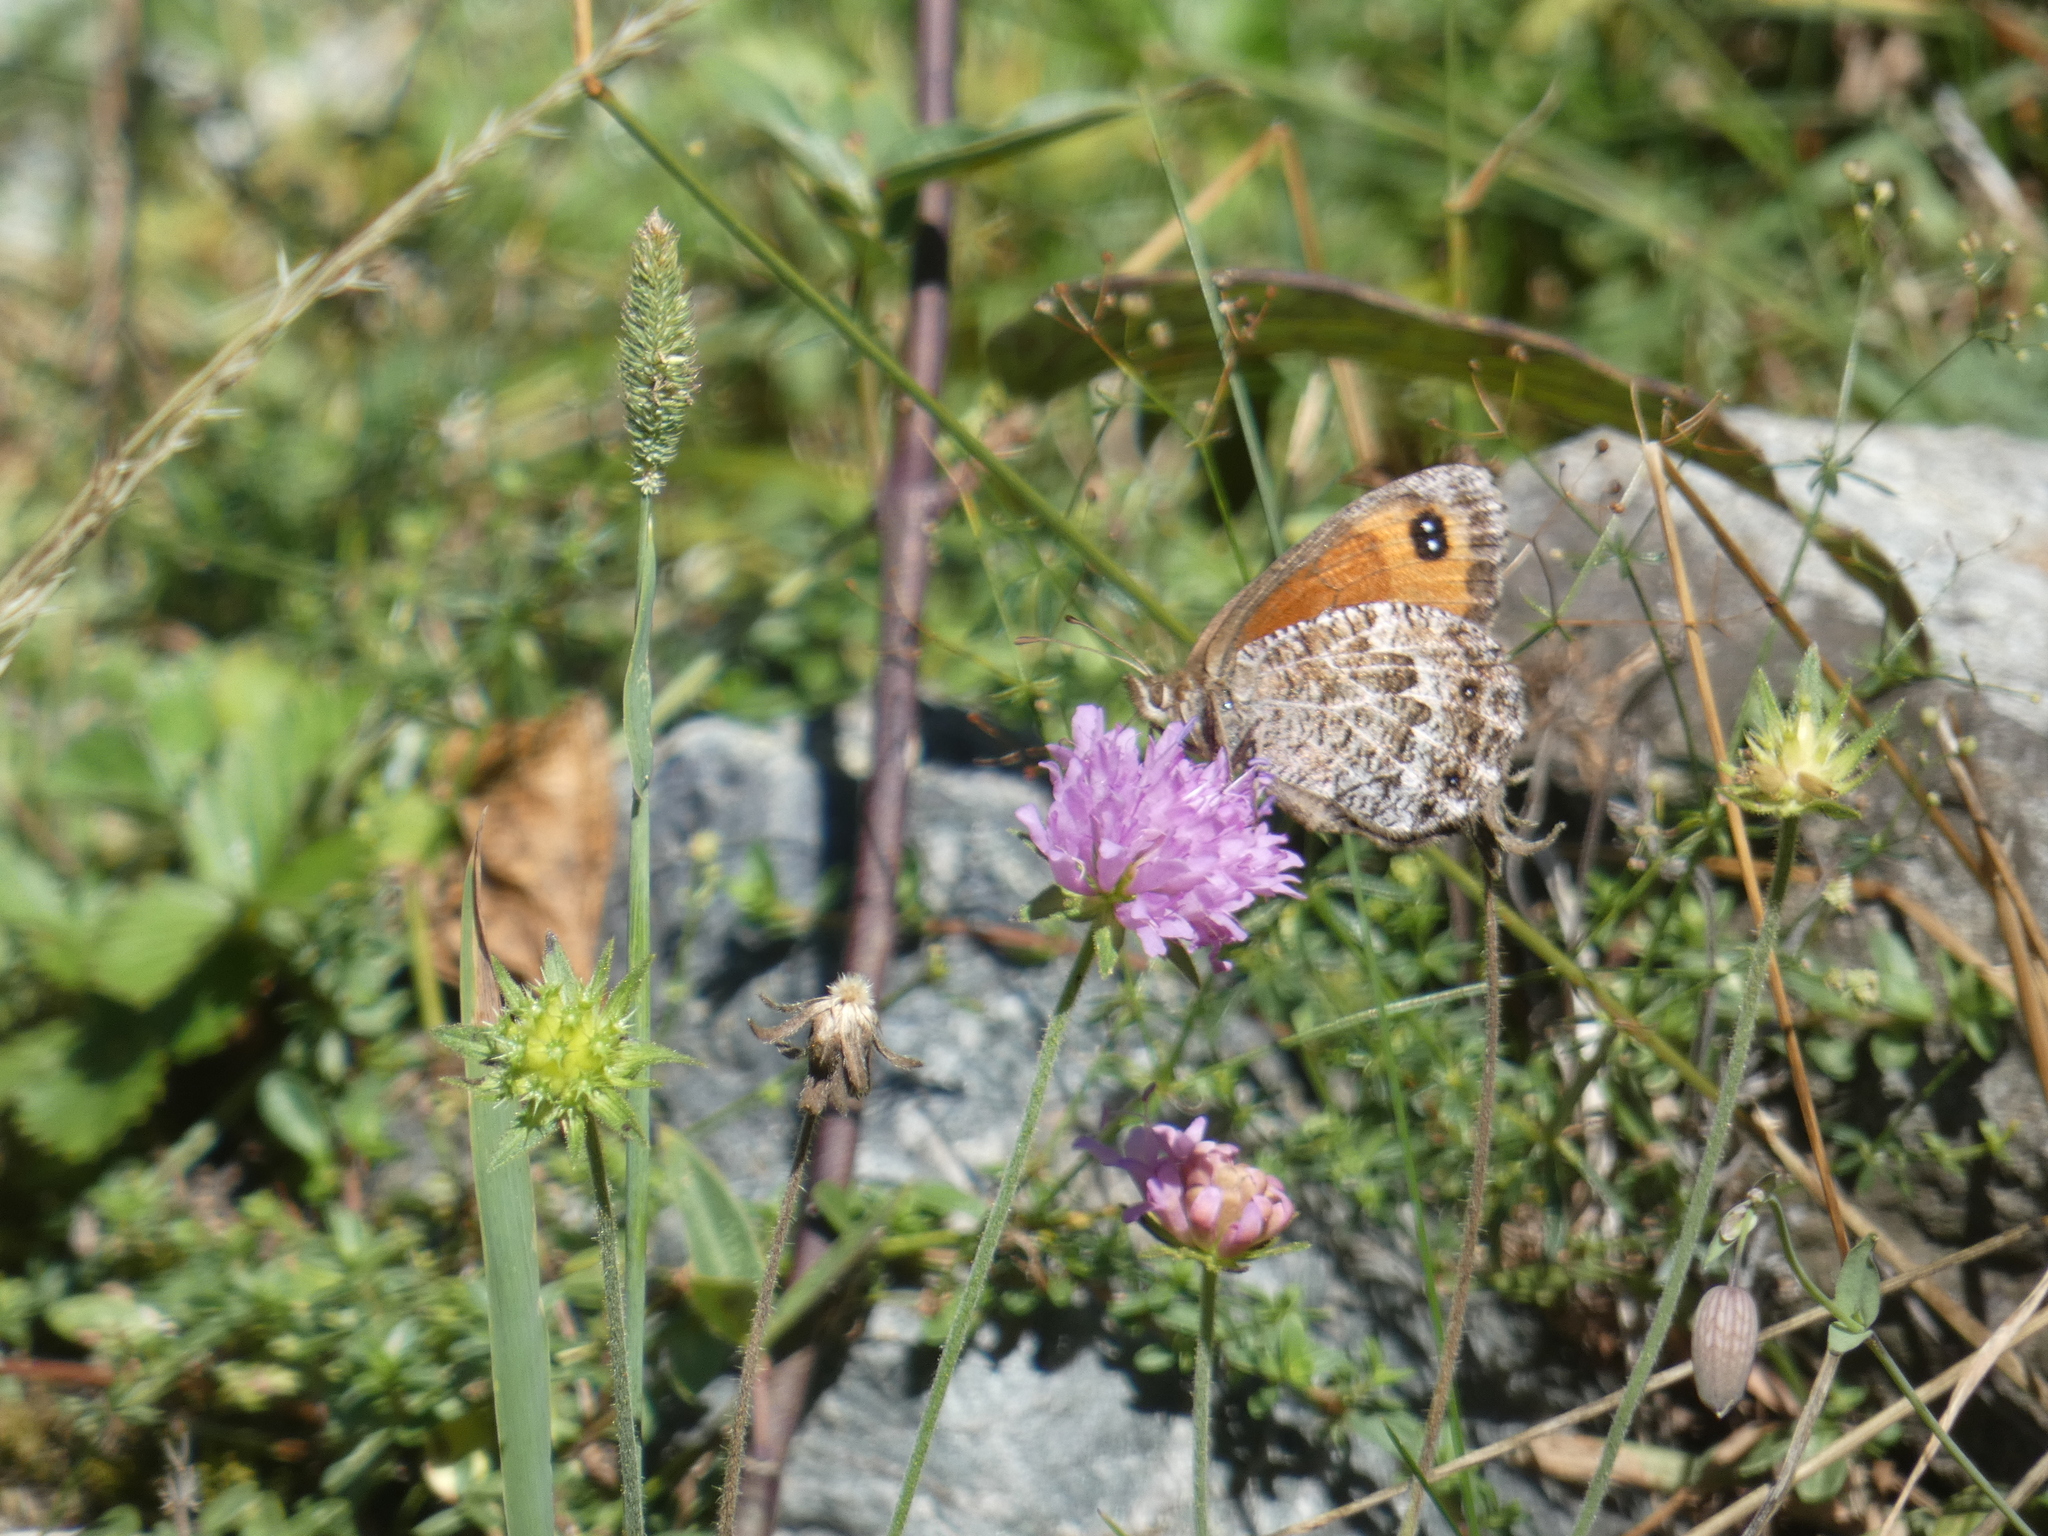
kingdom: Animalia
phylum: Arthropoda
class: Insecta
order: Lepidoptera
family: Nymphalidae
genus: Erebia
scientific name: Erebia montanus
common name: Marbled ringlet
